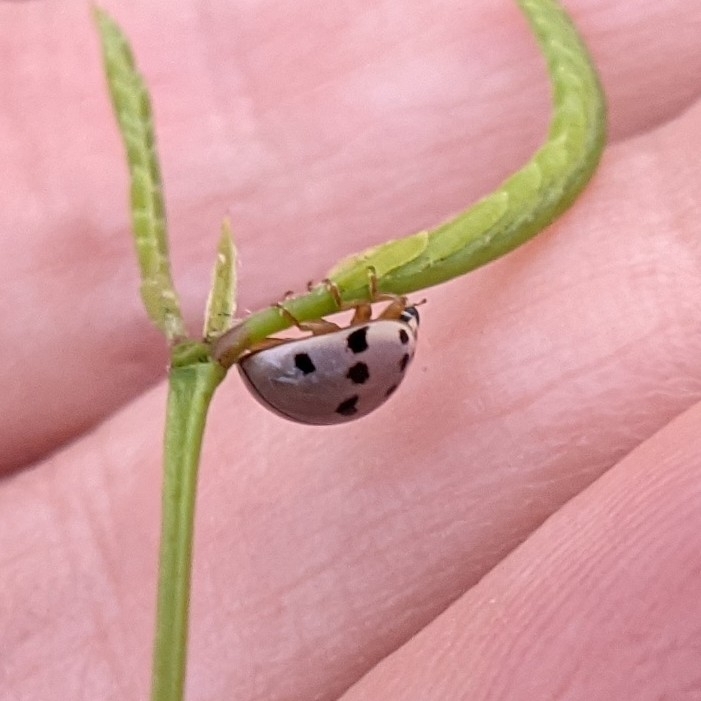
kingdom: Animalia
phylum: Arthropoda
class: Insecta
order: Coleoptera
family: Coccinellidae
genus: Olla
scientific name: Olla v-nigrum
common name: Ashy gray lady beetle
